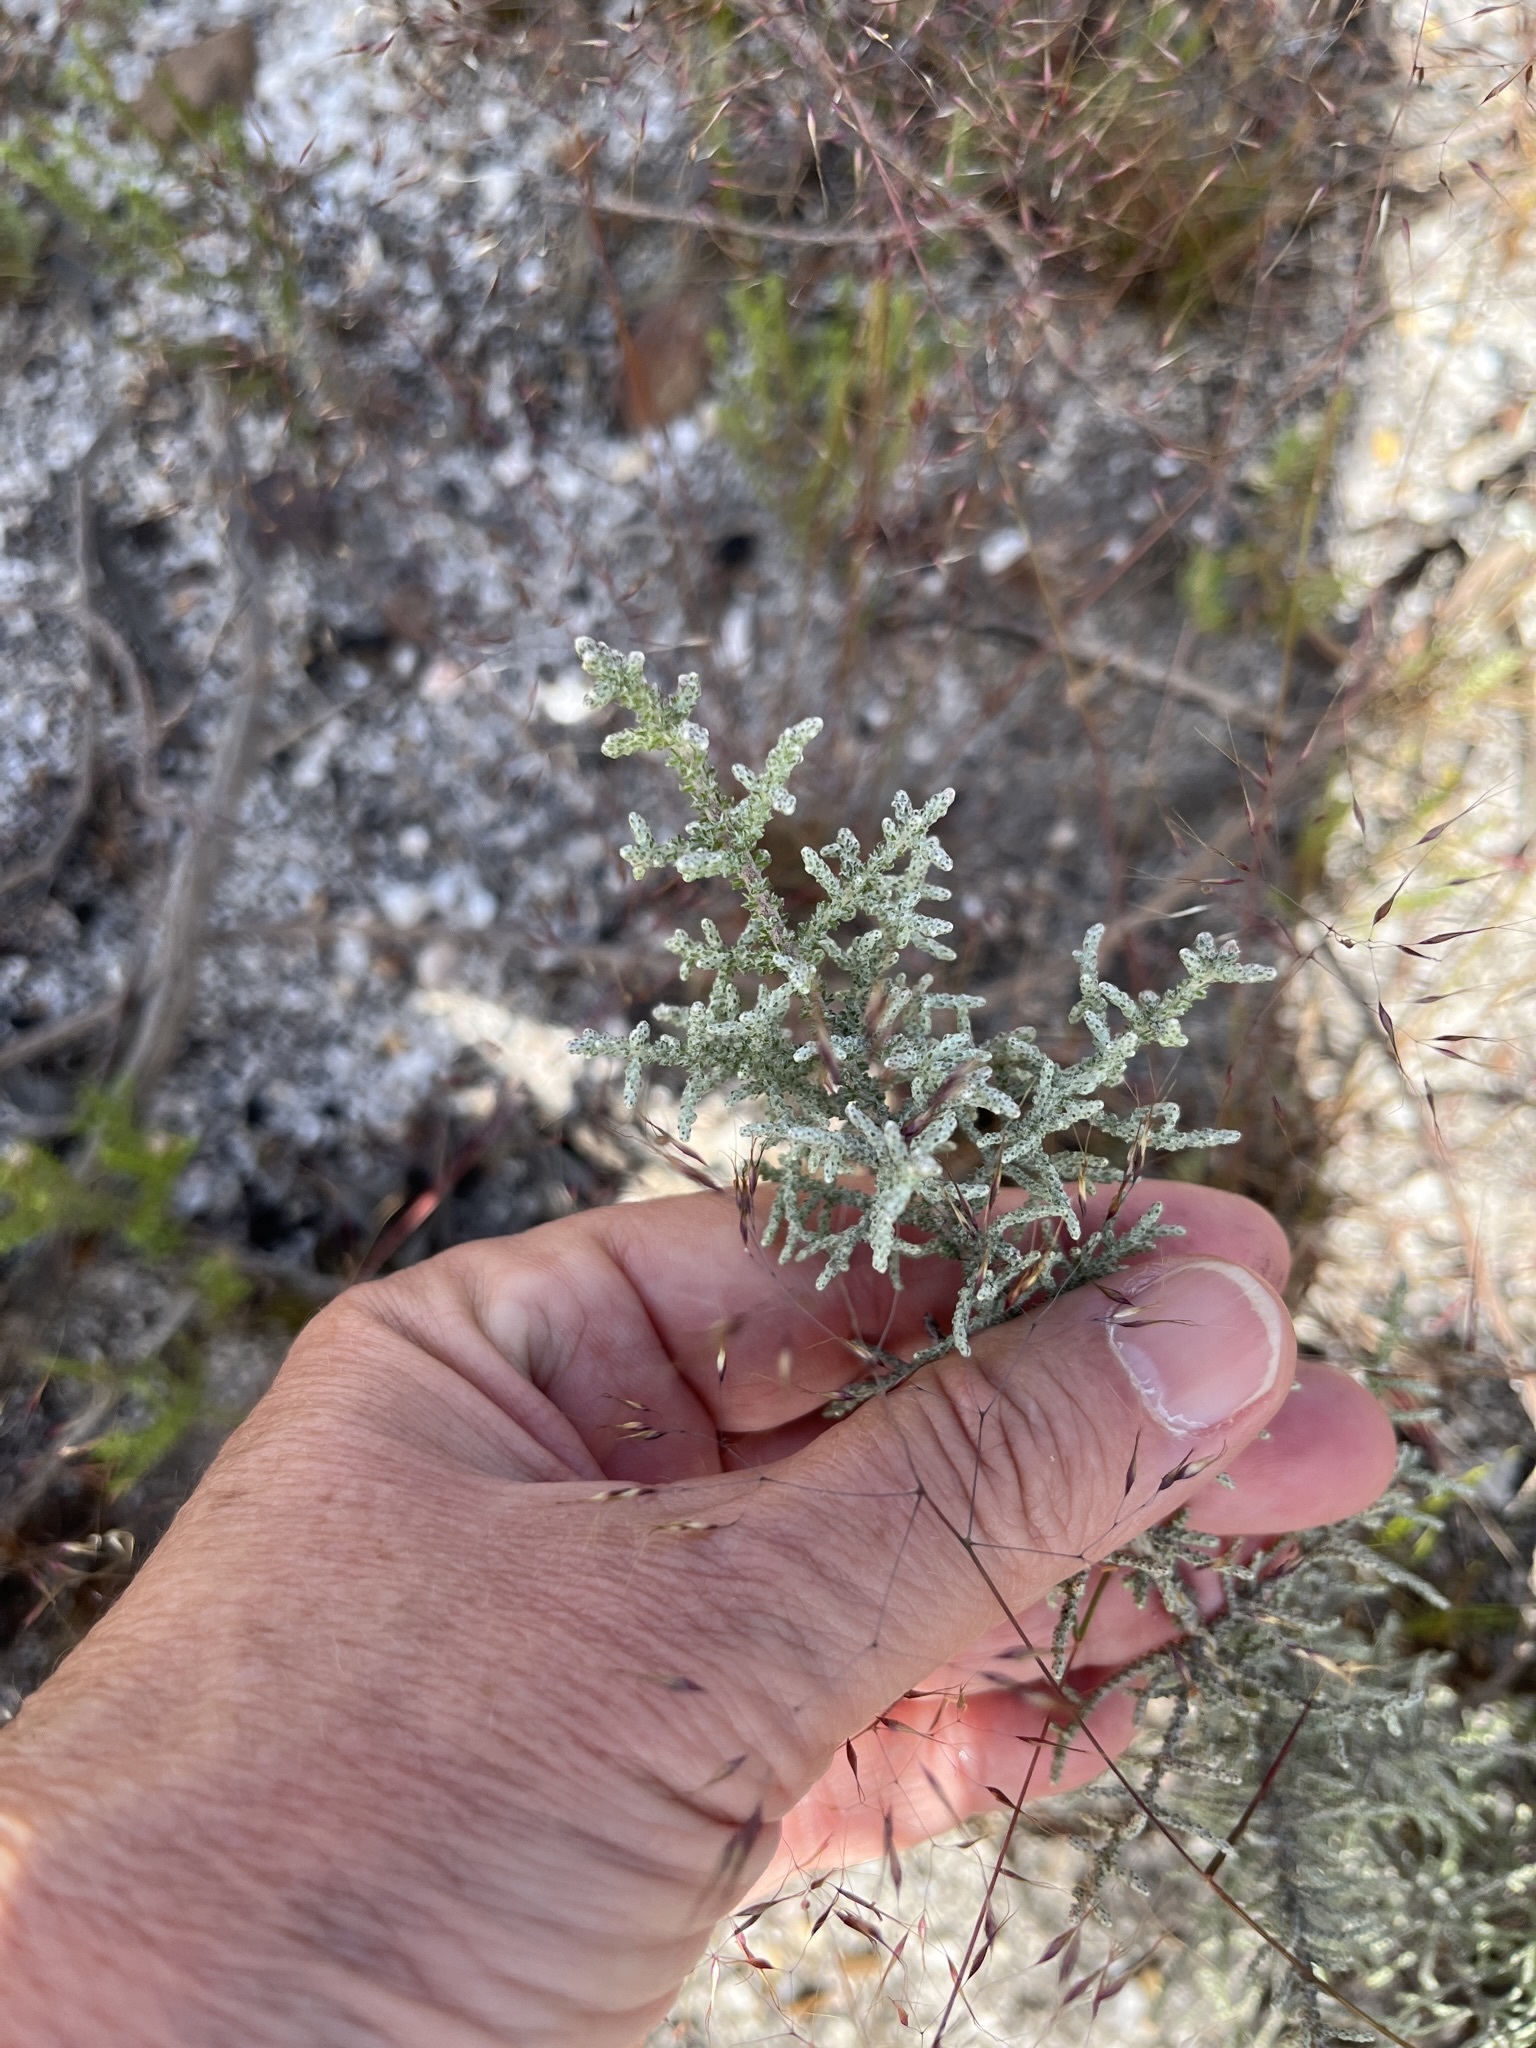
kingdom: Plantae
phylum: Tracheophyta
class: Magnoliopsida
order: Asterales
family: Asteraceae
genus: Seriphium
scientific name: Seriphium plumosum
